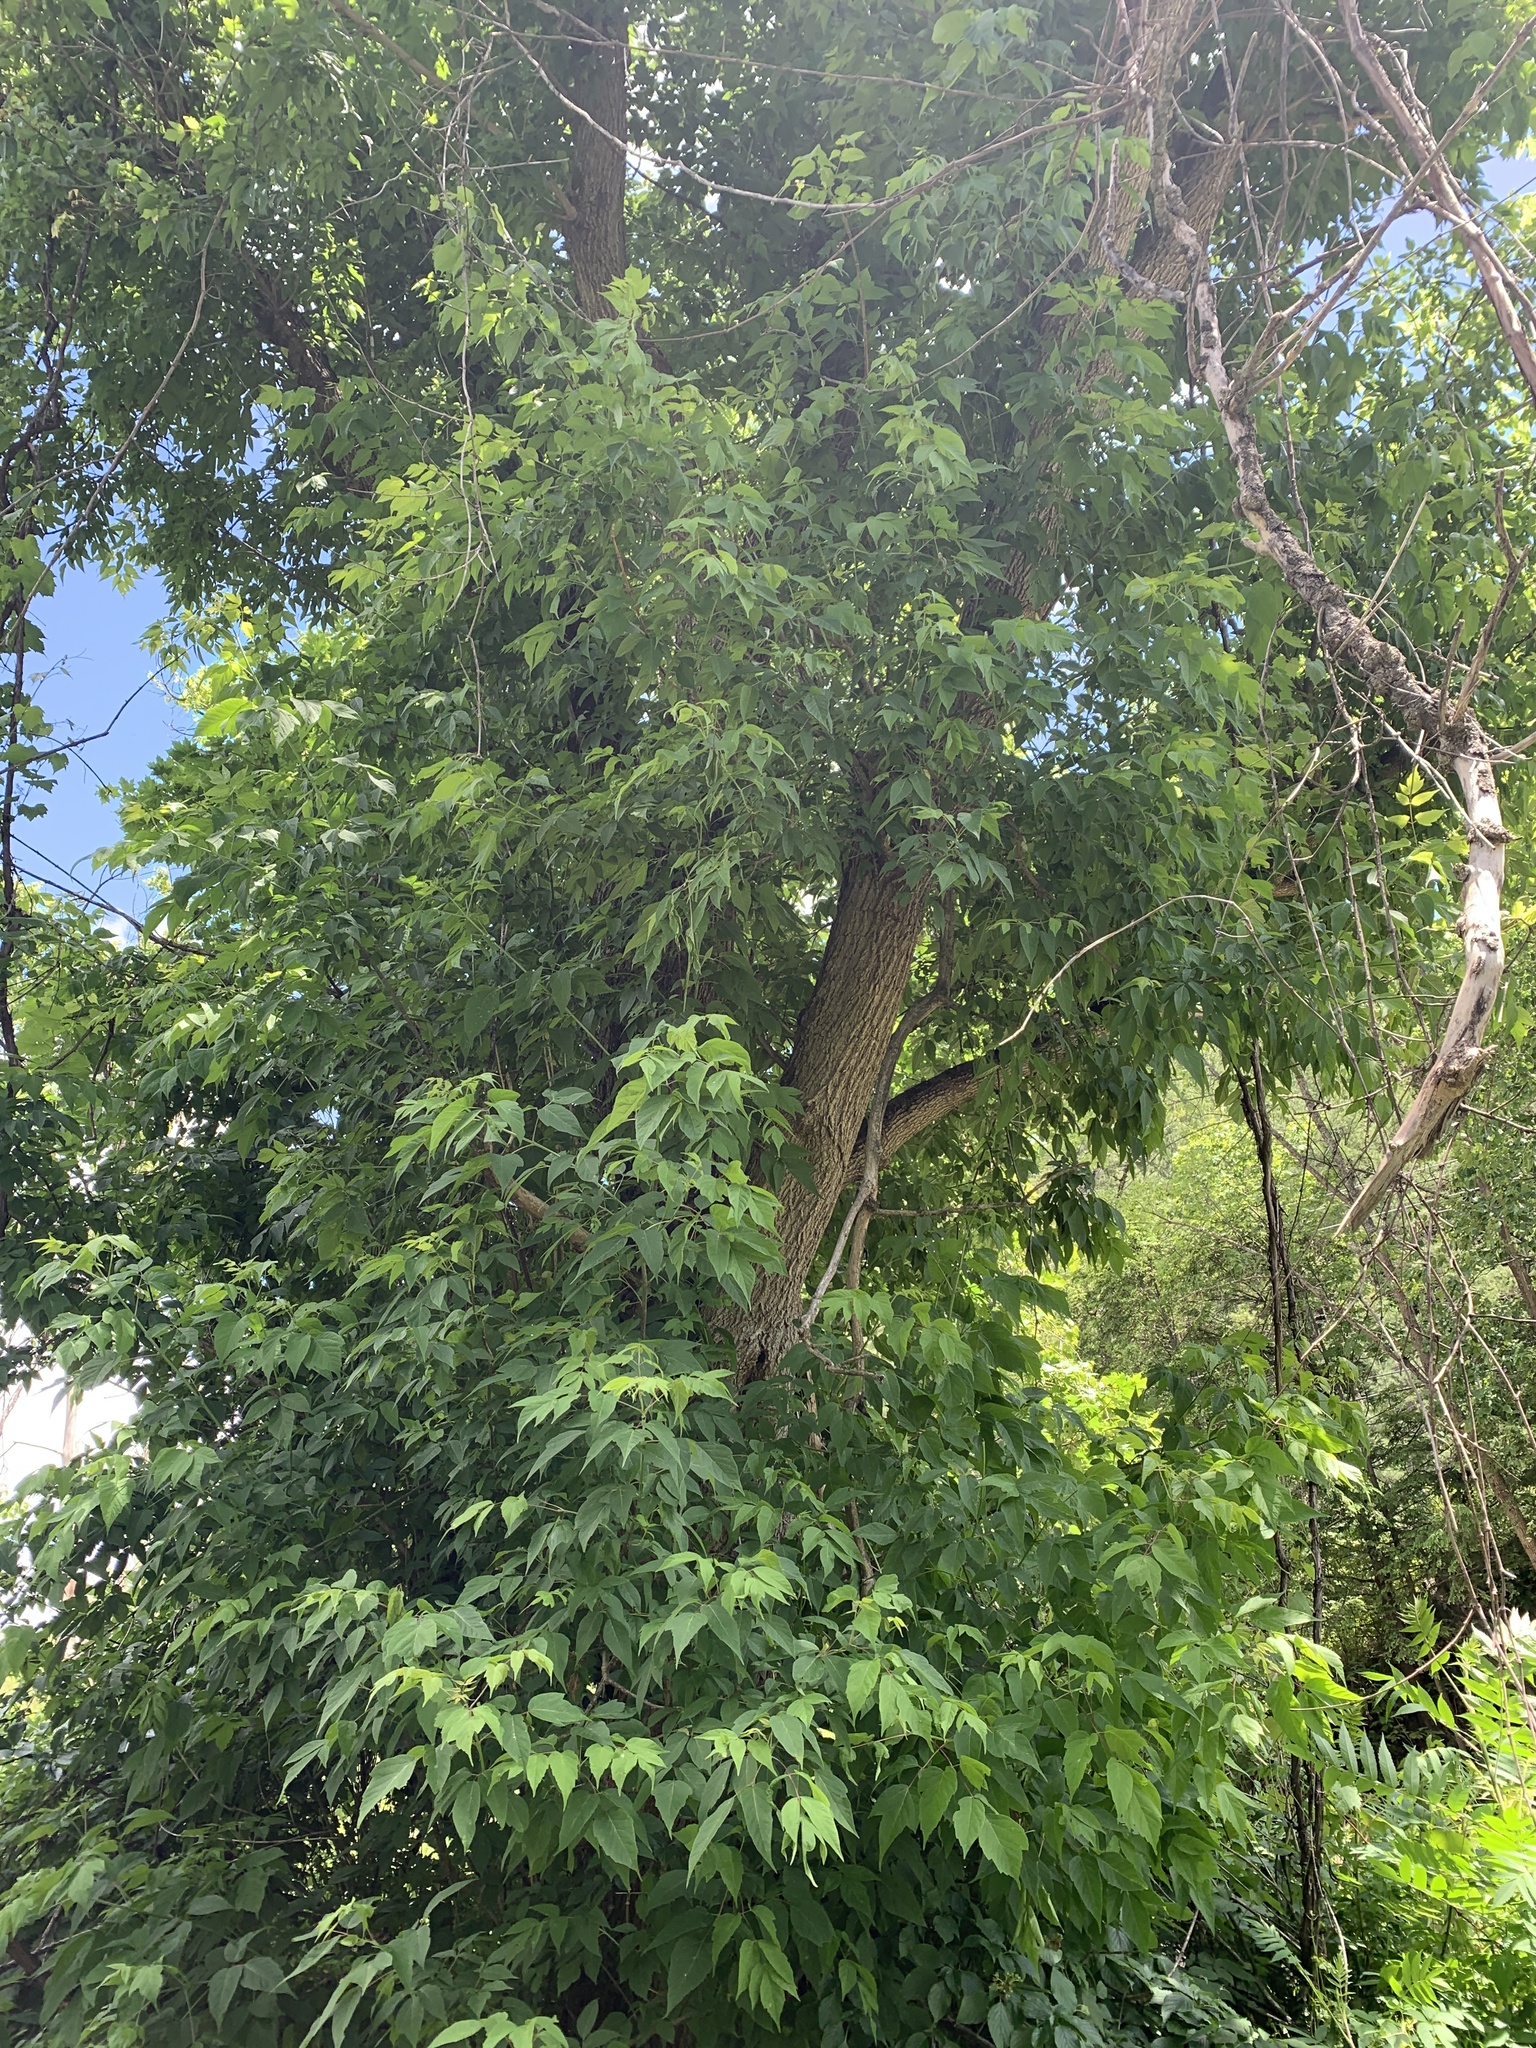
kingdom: Plantae
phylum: Tracheophyta
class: Magnoliopsida
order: Sapindales
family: Sapindaceae
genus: Acer
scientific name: Acer negundo
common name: Ashleaf maple
